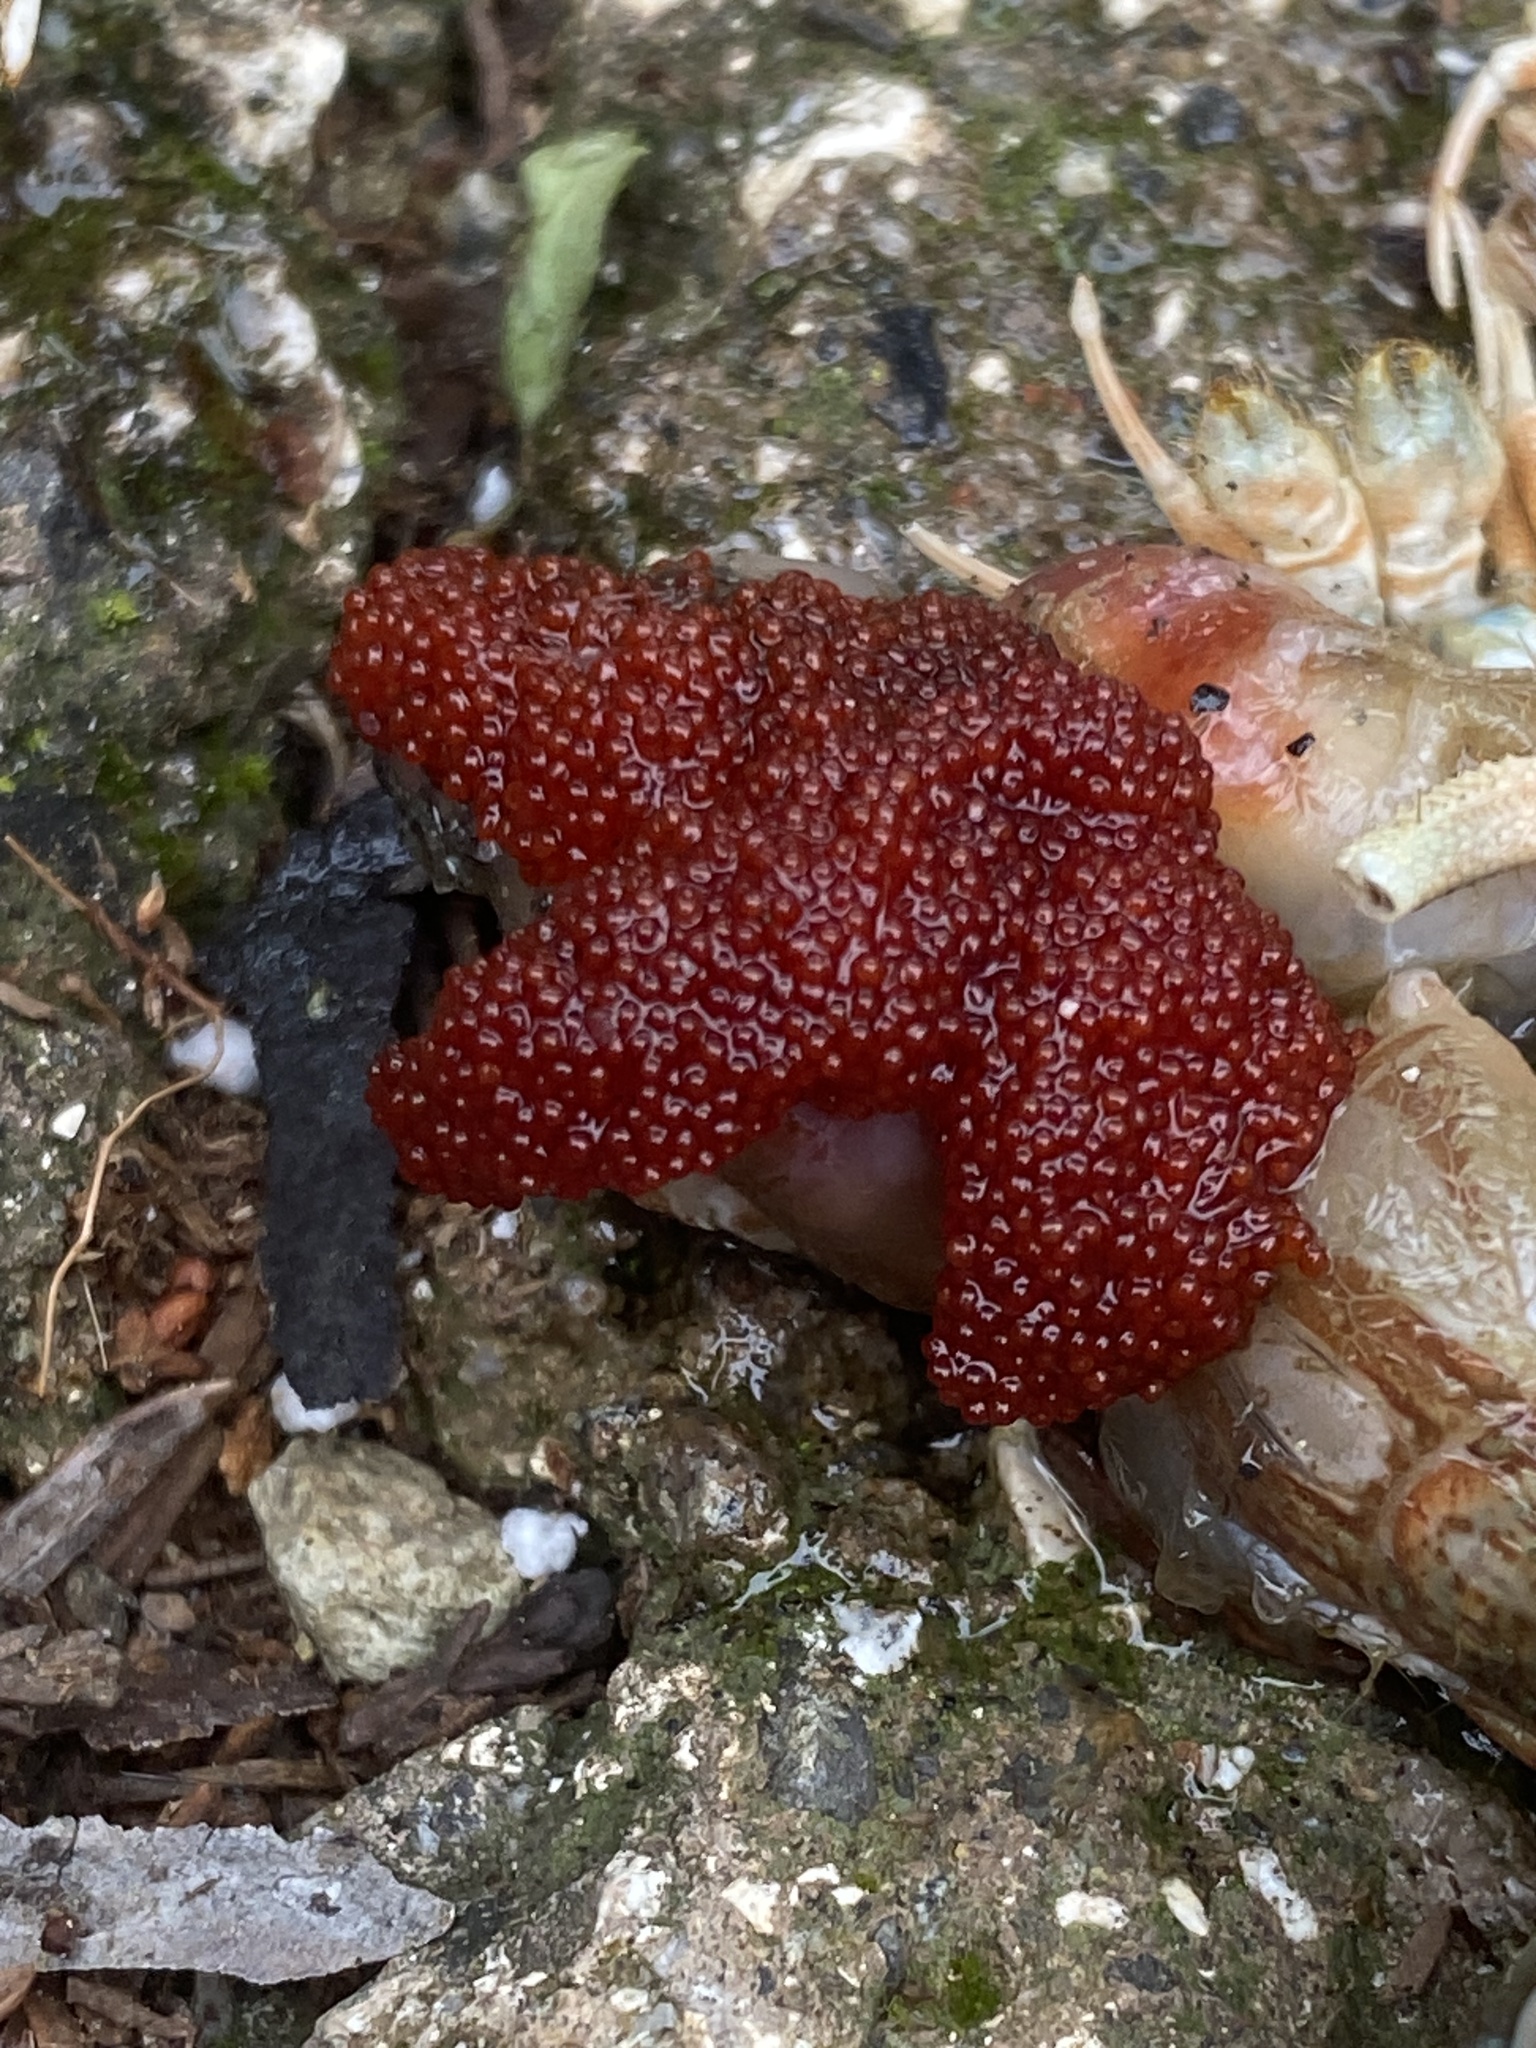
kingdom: Animalia
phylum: Arthropoda
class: Malacostraca
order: Decapoda
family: Diogenidae
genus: Isocheles
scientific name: Isocheles pilosus
